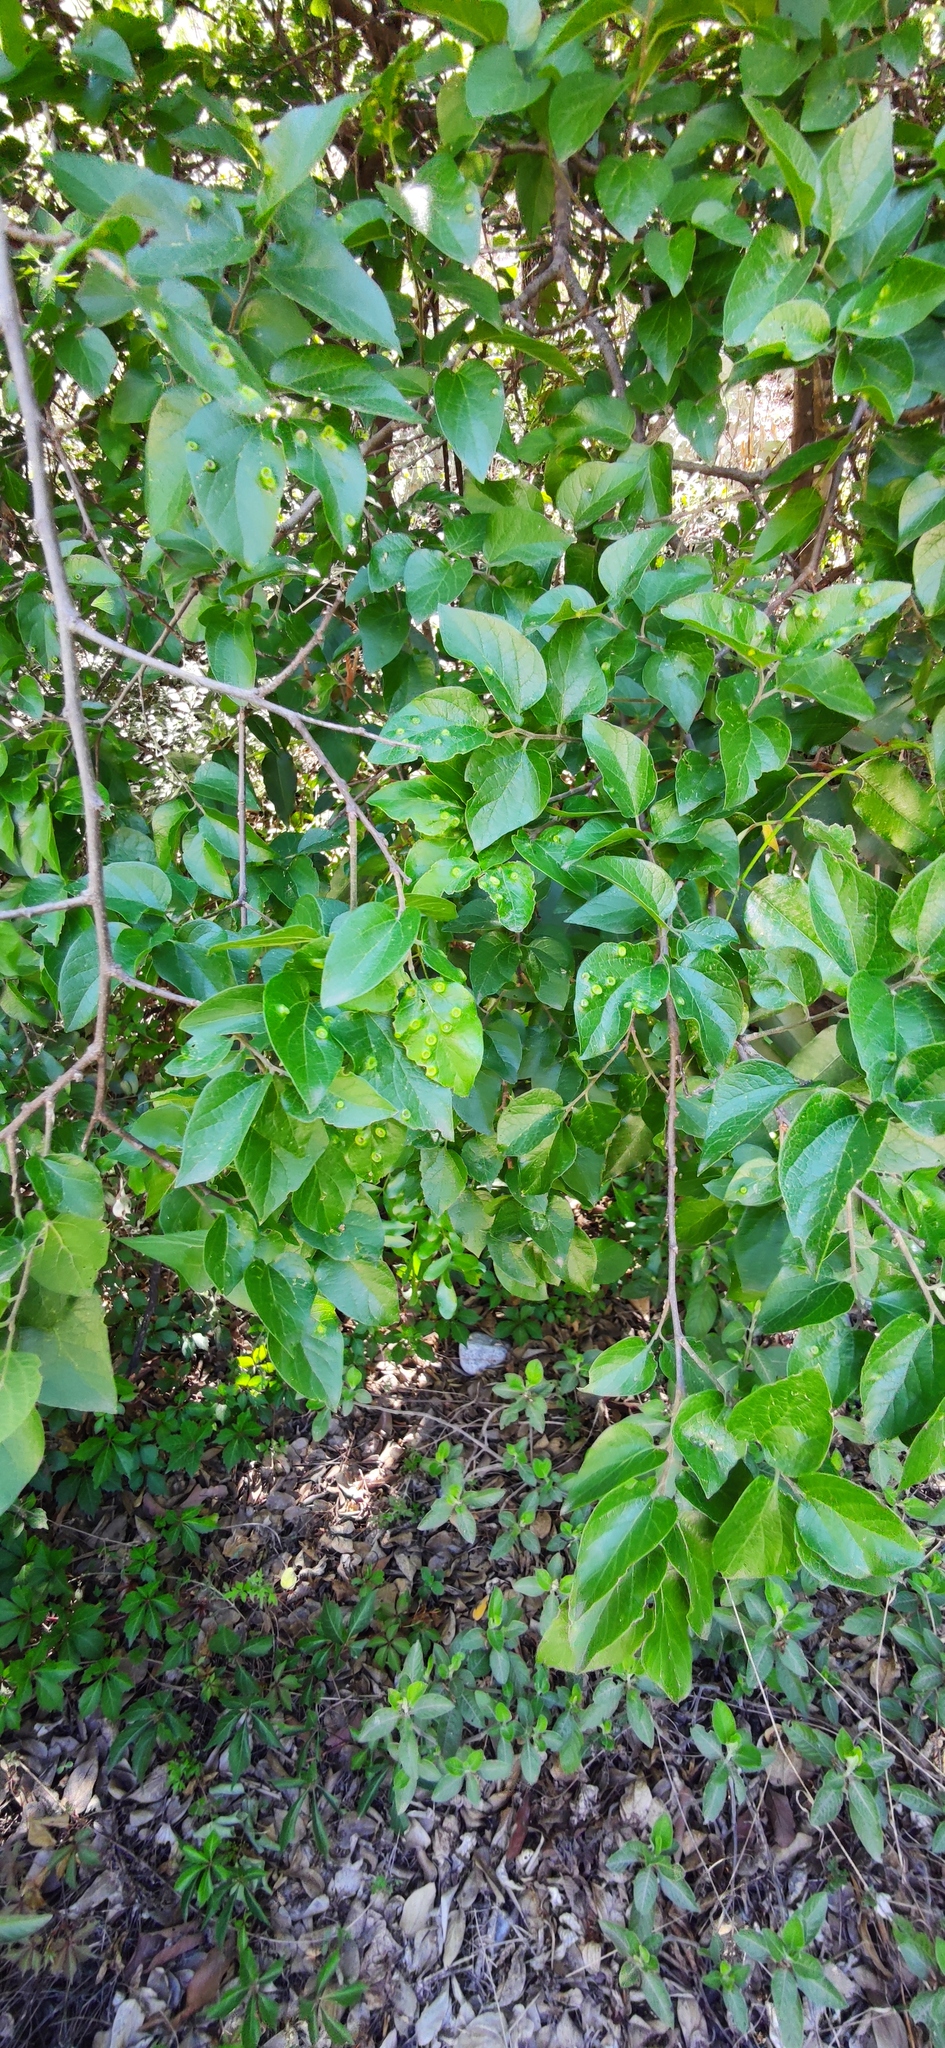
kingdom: Plantae
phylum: Tracheophyta
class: Magnoliopsida
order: Rosales
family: Cannabaceae
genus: Celtis
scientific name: Celtis laevigata
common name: Sugarberry
